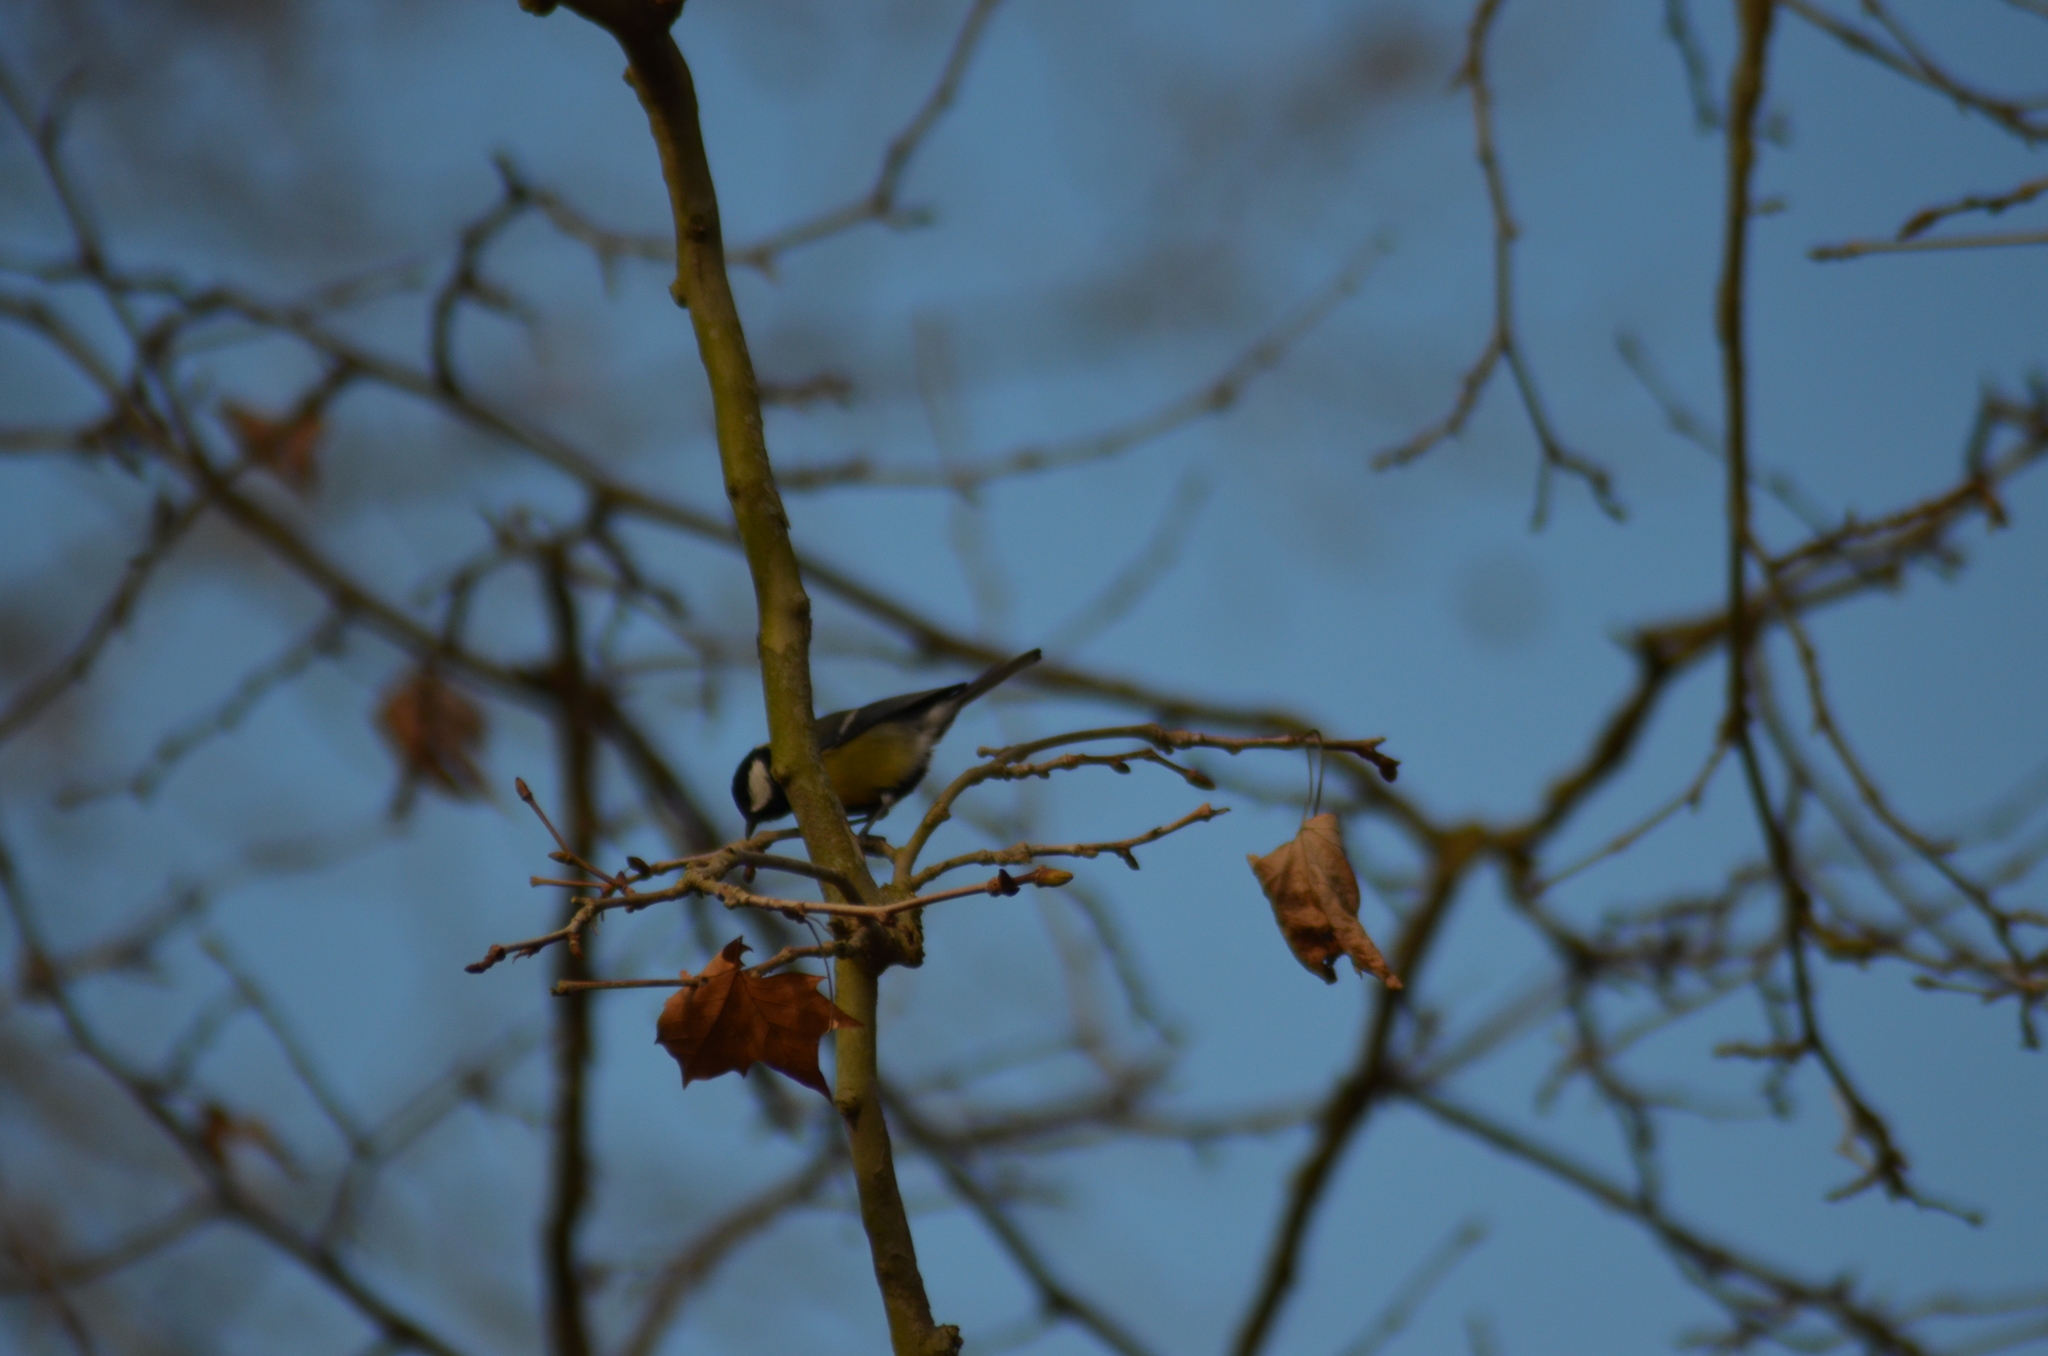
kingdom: Animalia
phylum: Chordata
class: Aves
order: Passeriformes
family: Paridae
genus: Parus
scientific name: Parus major
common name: Great tit
